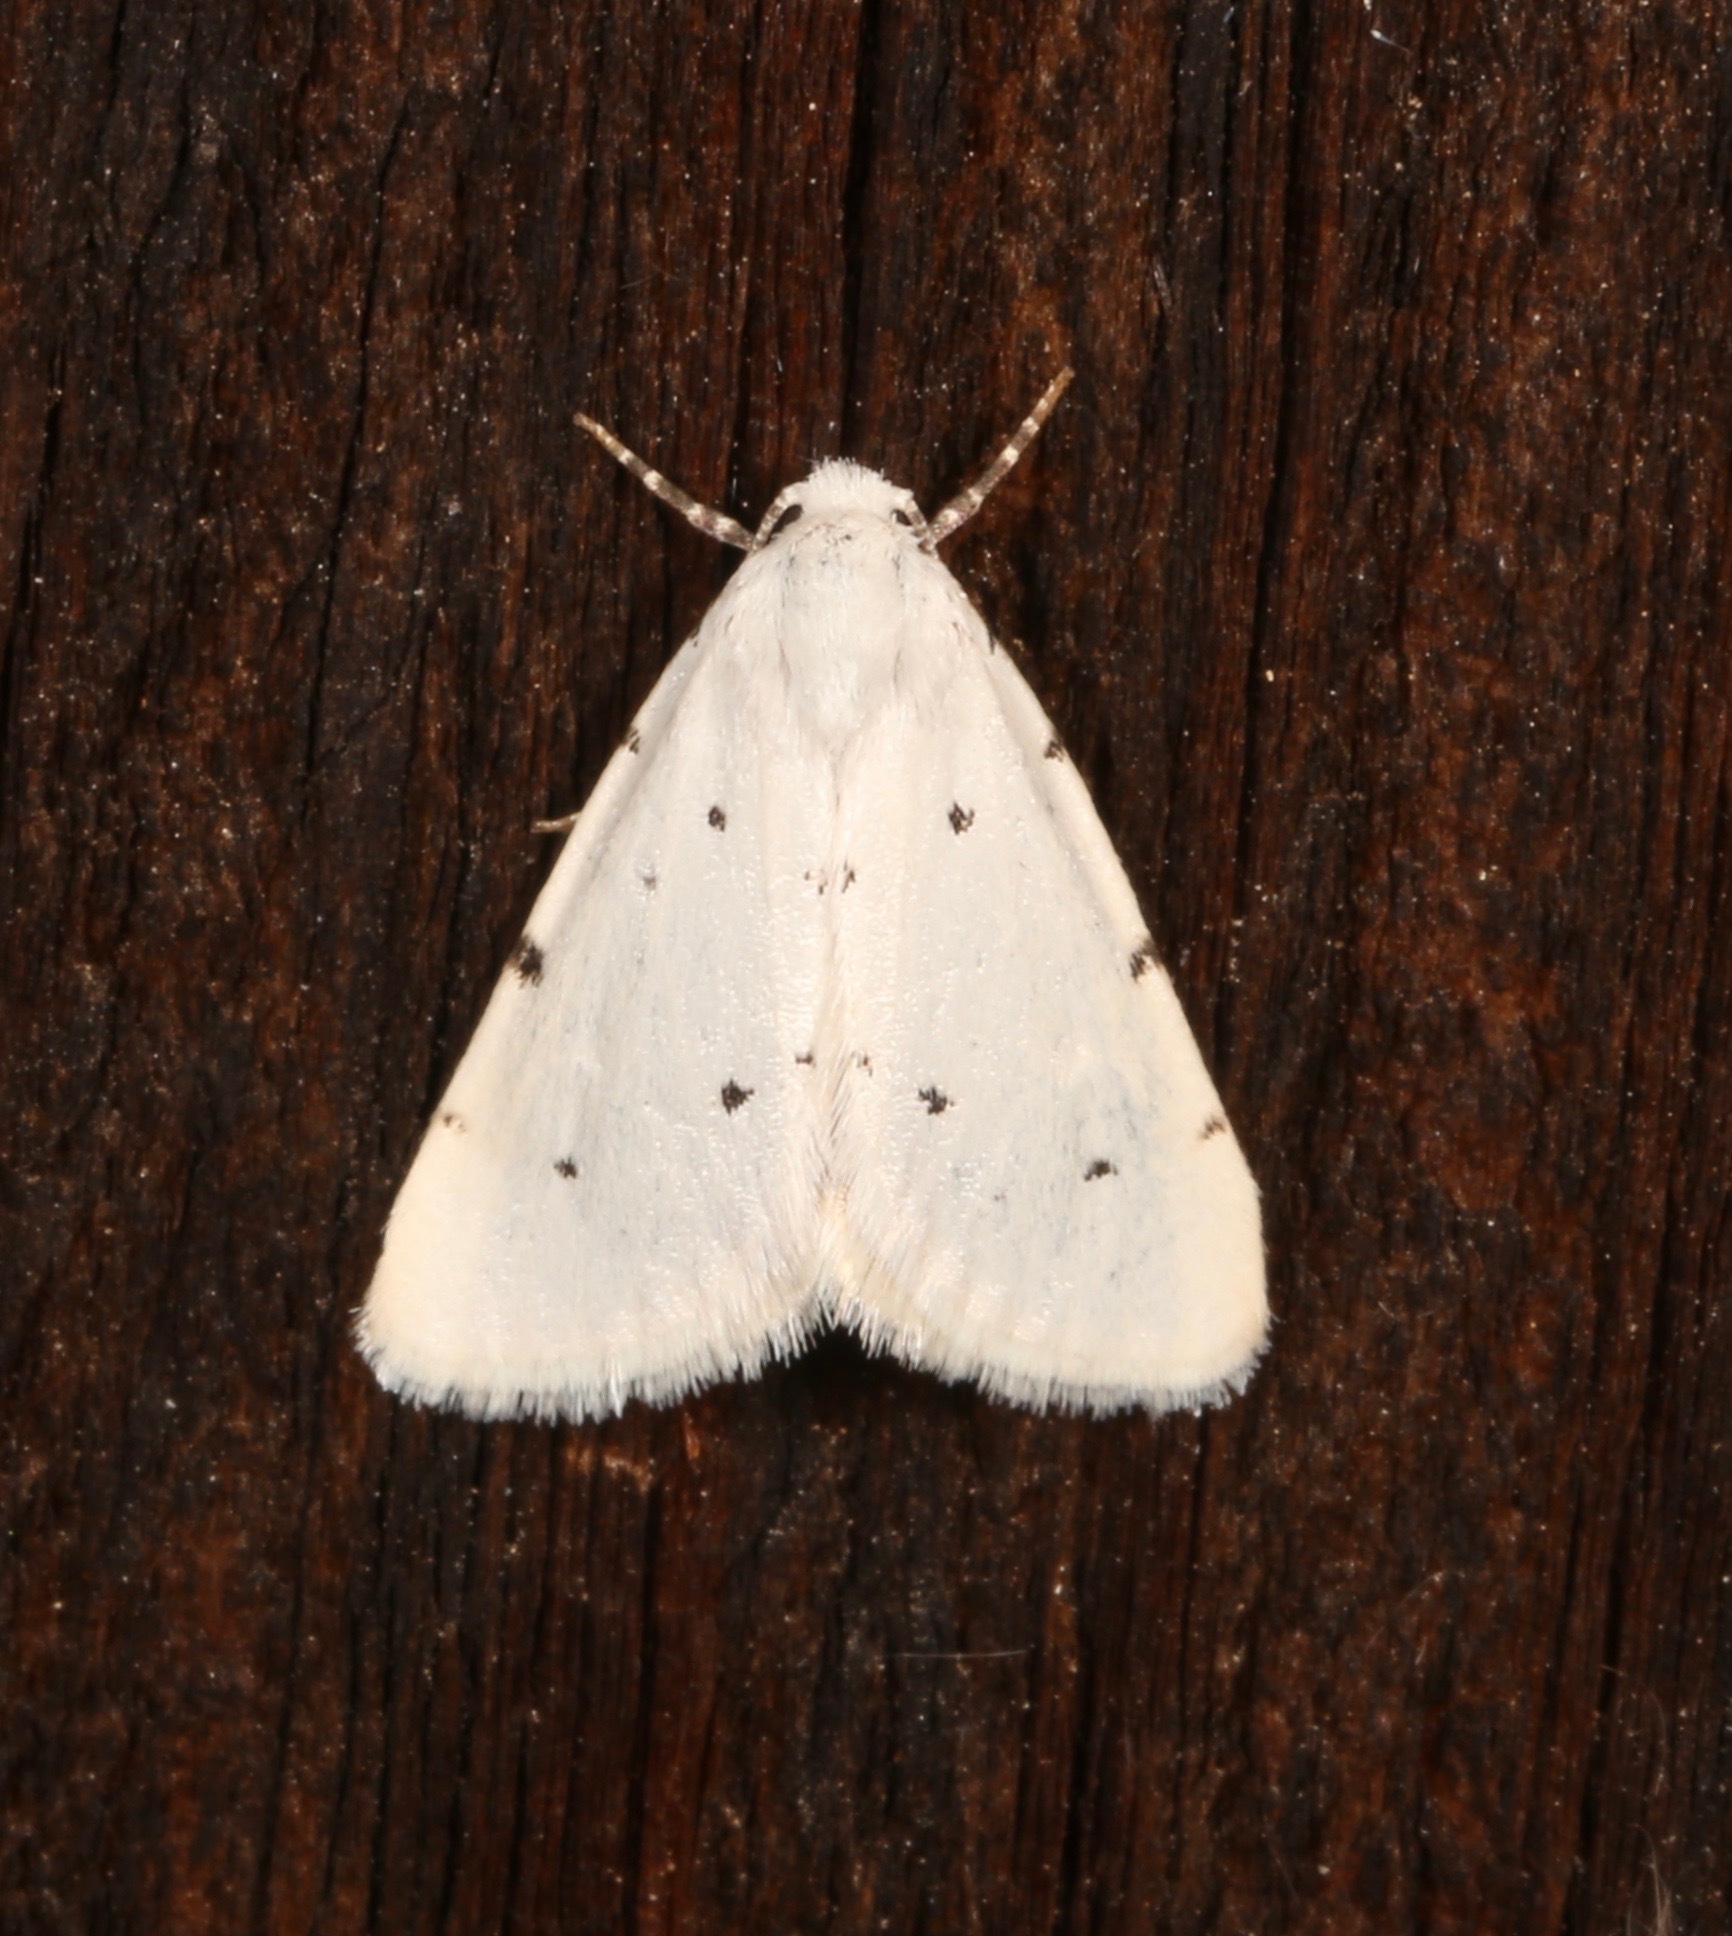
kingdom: Animalia
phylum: Arthropoda
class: Insecta
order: Lepidoptera
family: Noctuidae
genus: Grotellaforma
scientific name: Grotellaforma lactea
